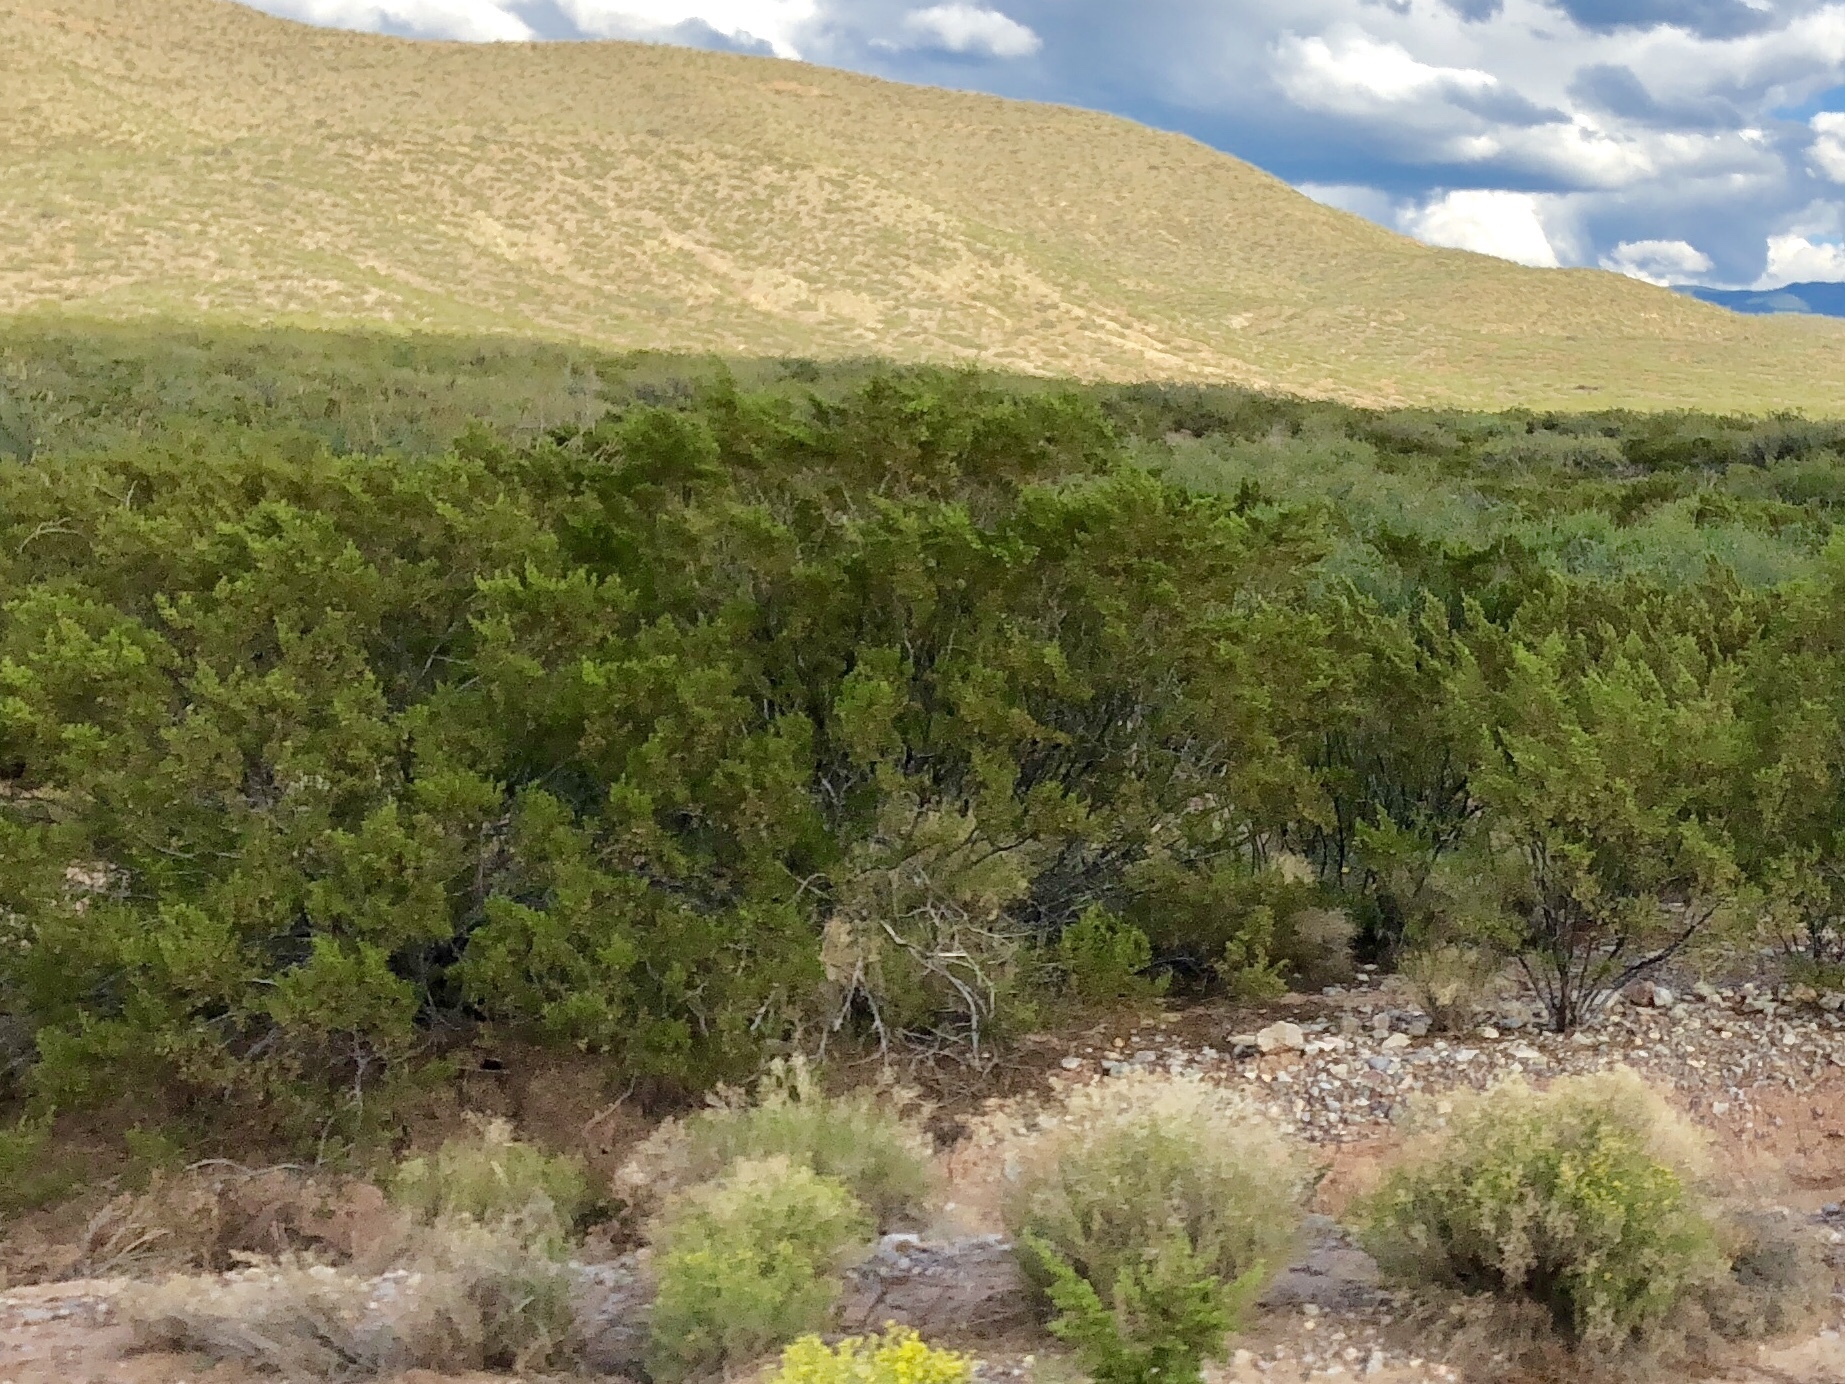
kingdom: Plantae
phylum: Tracheophyta
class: Magnoliopsida
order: Zygophyllales
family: Zygophyllaceae
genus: Larrea
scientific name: Larrea tridentata
